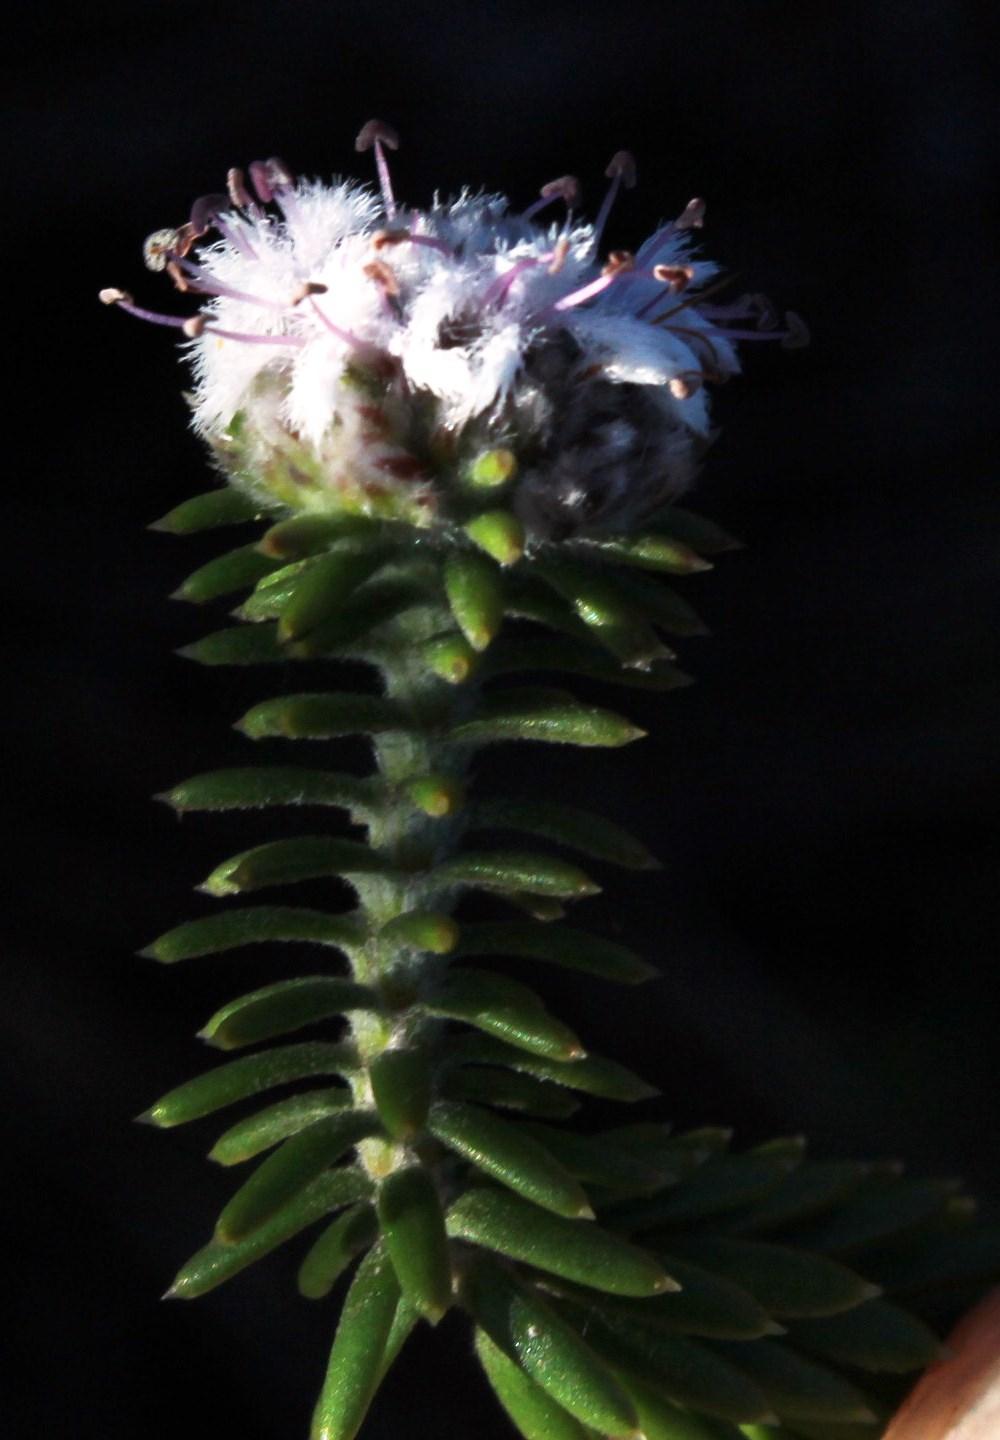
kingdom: Plantae
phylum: Tracheophyta
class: Magnoliopsida
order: Lamiales
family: Stilbaceae
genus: Kogelbergia
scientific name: Kogelbergia verticillata
